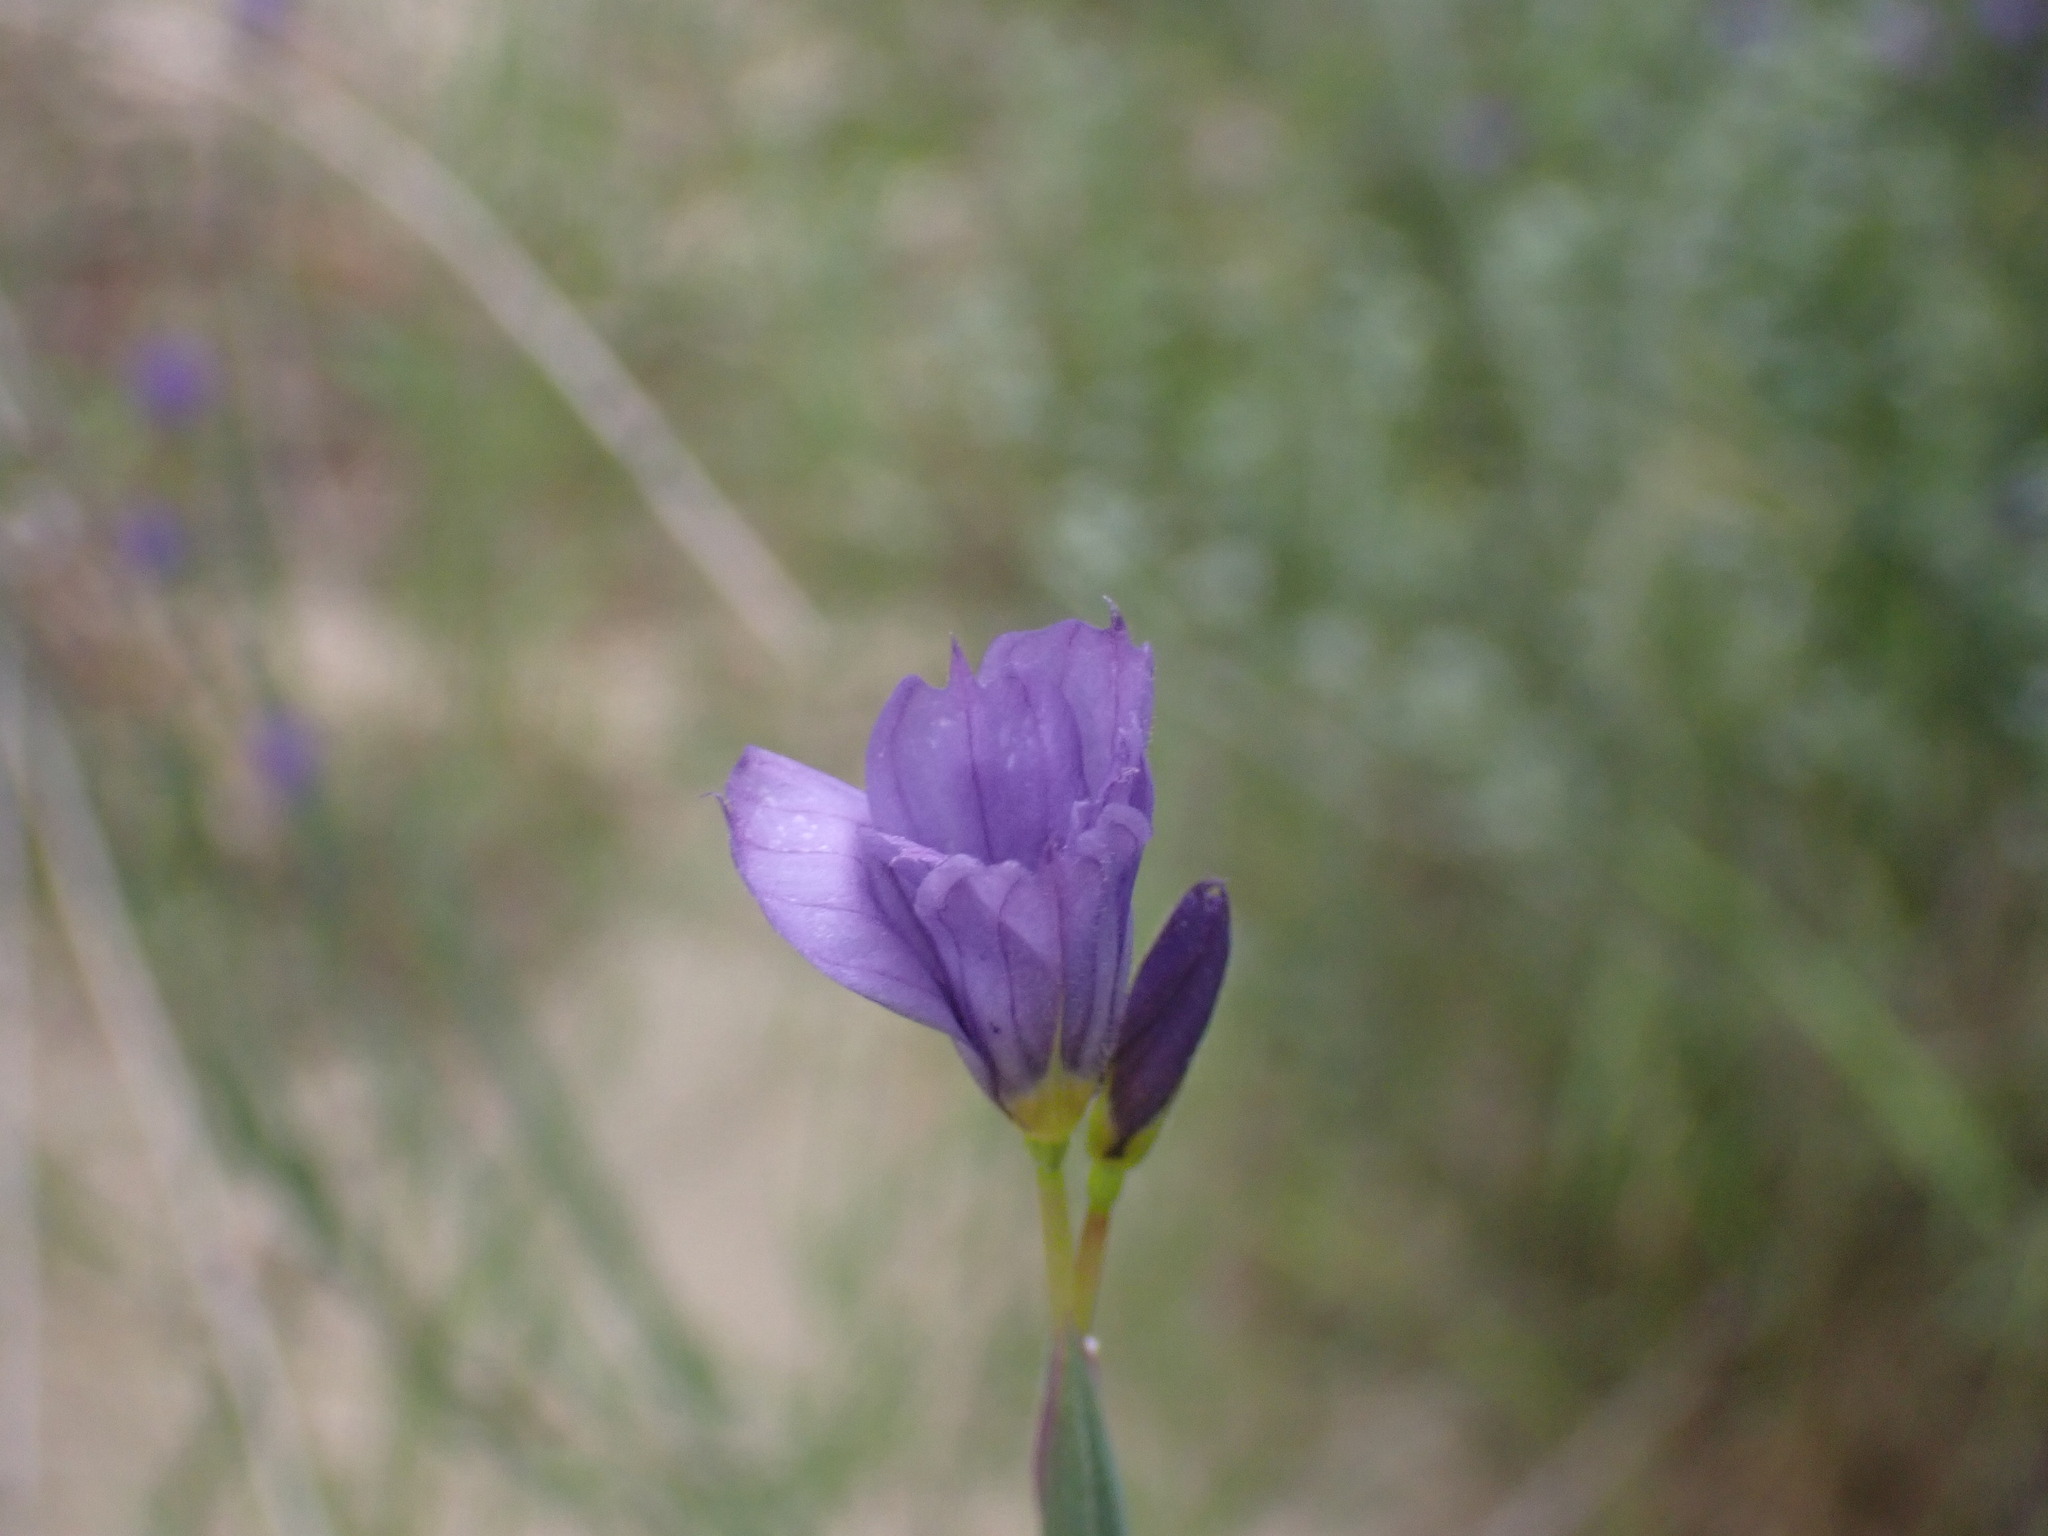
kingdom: Plantae
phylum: Tracheophyta
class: Liliopsida
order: Asparagales
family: Iridaceae
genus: Sisyrinchium
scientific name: Sisyrinchium bellum
